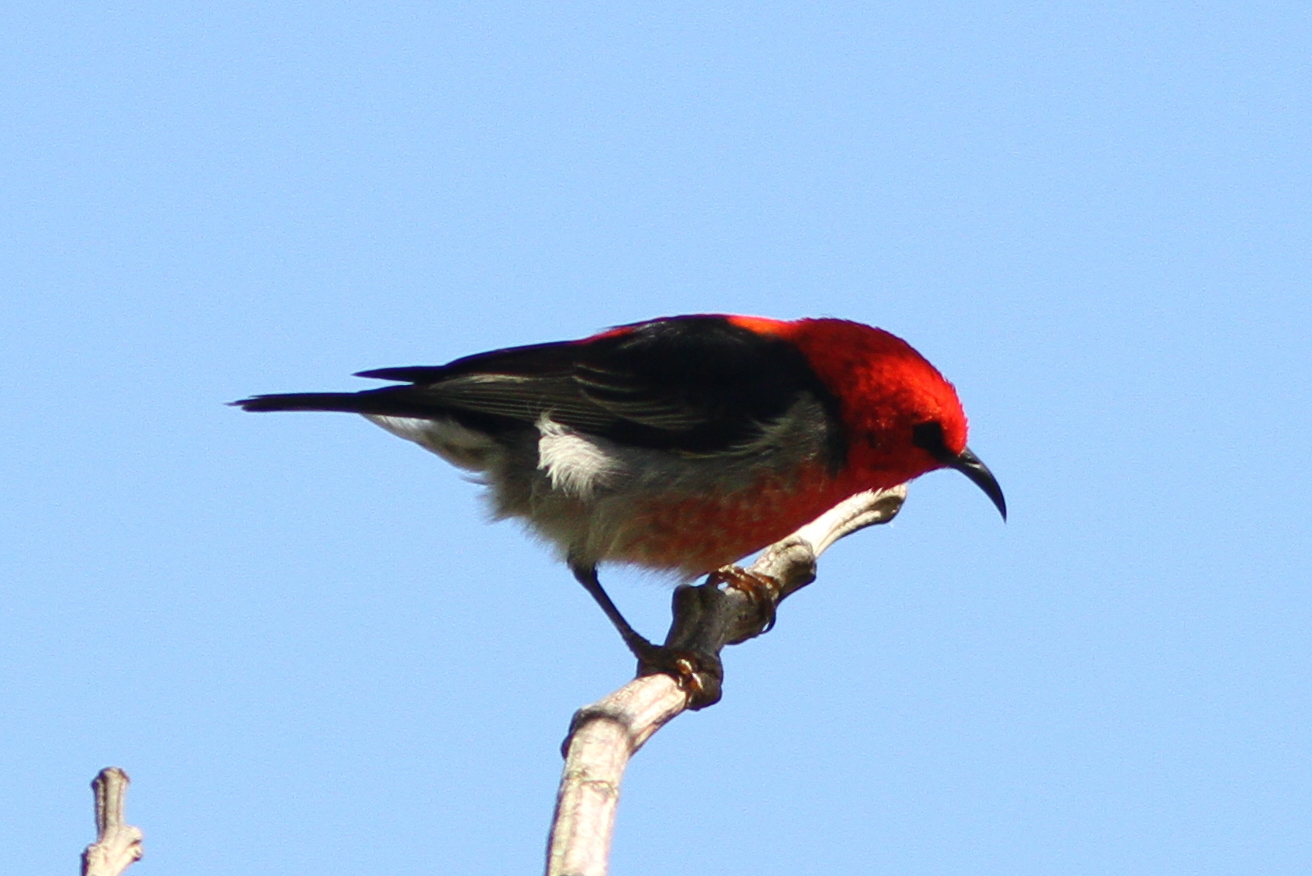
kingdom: Animalia
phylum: Chordata
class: Aves
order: Passeriformes
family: Meliphagidae
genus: Myzomela
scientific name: Myzomela sanguinolenta
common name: Scarlet myzomela
